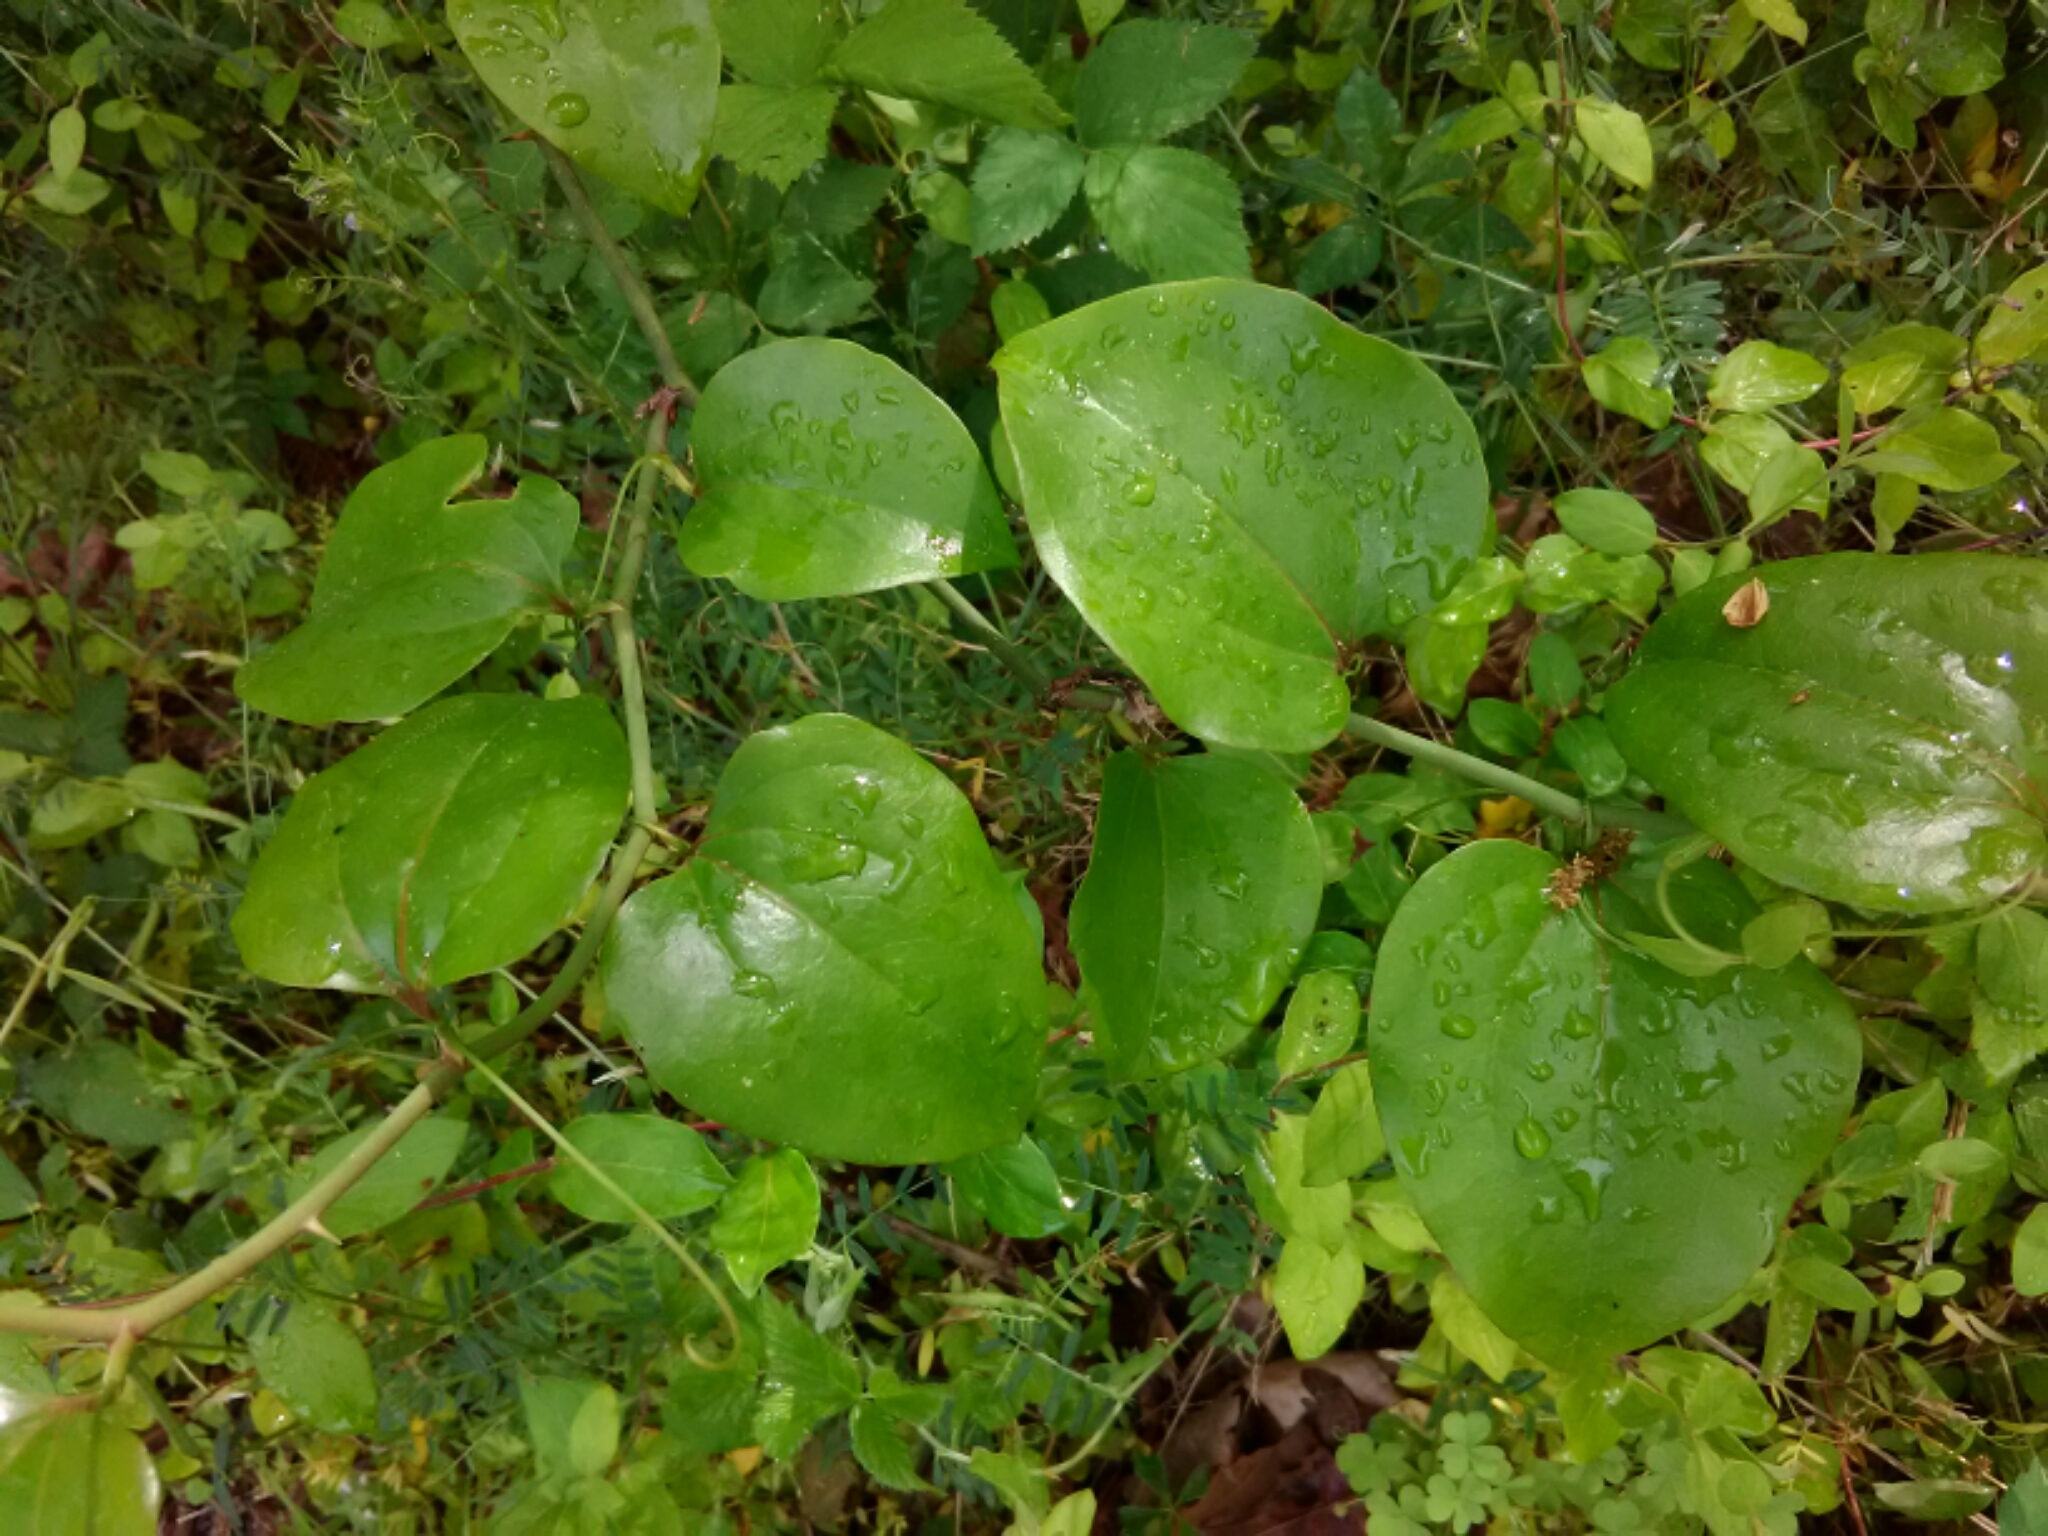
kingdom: Plantae
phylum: Tracheophyta
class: Liliopsida
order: Liliales
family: Smilacaceae
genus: Smilax
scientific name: Smilax rotundifolia
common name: Bullbriar
